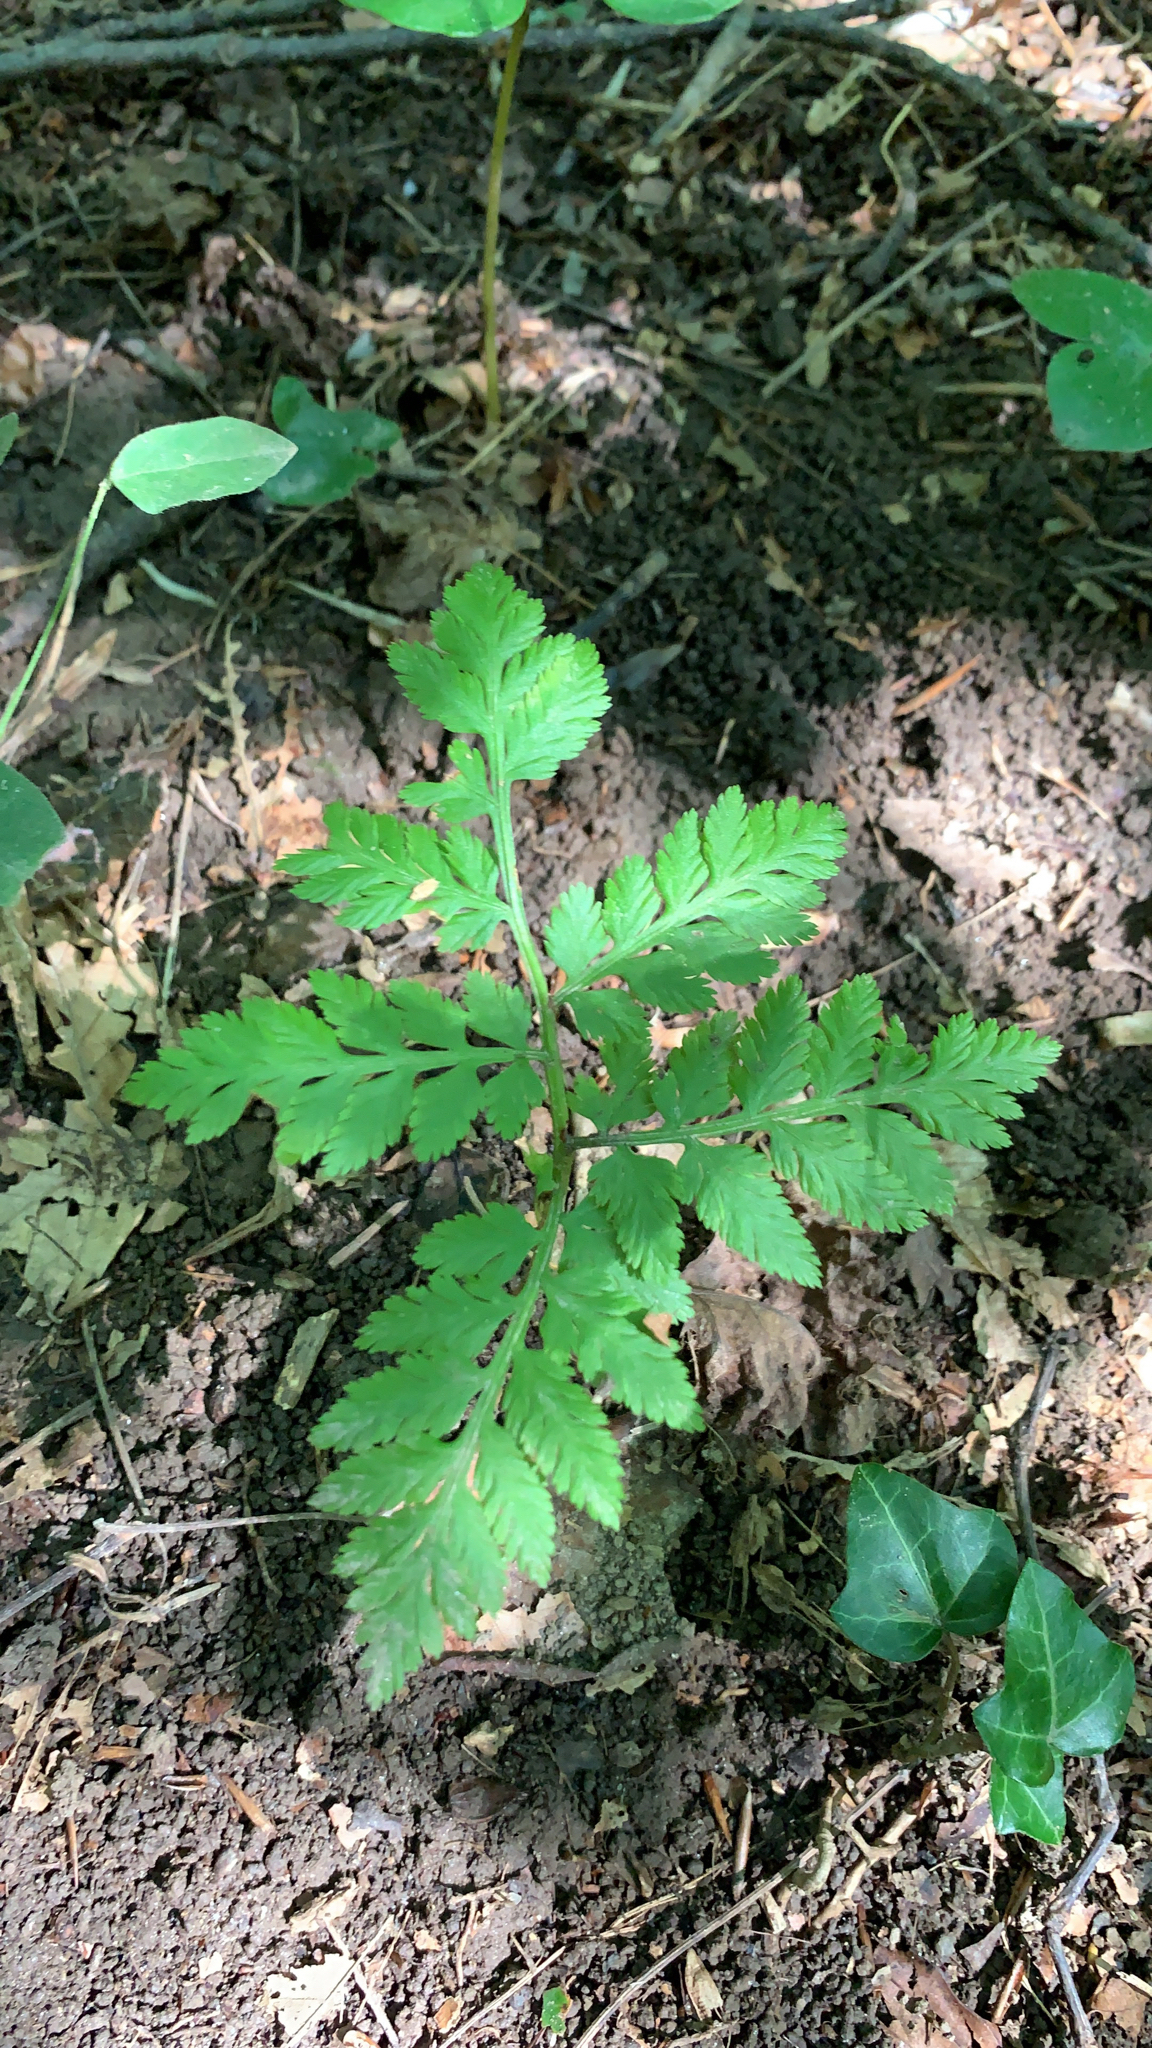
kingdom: Plantae
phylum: Tracheophyta
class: Polypodiopsida
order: Ophioglossales
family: Ophioglossaceae
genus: Botrypus
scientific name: Botrypus virginianus
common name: Common grapefern
